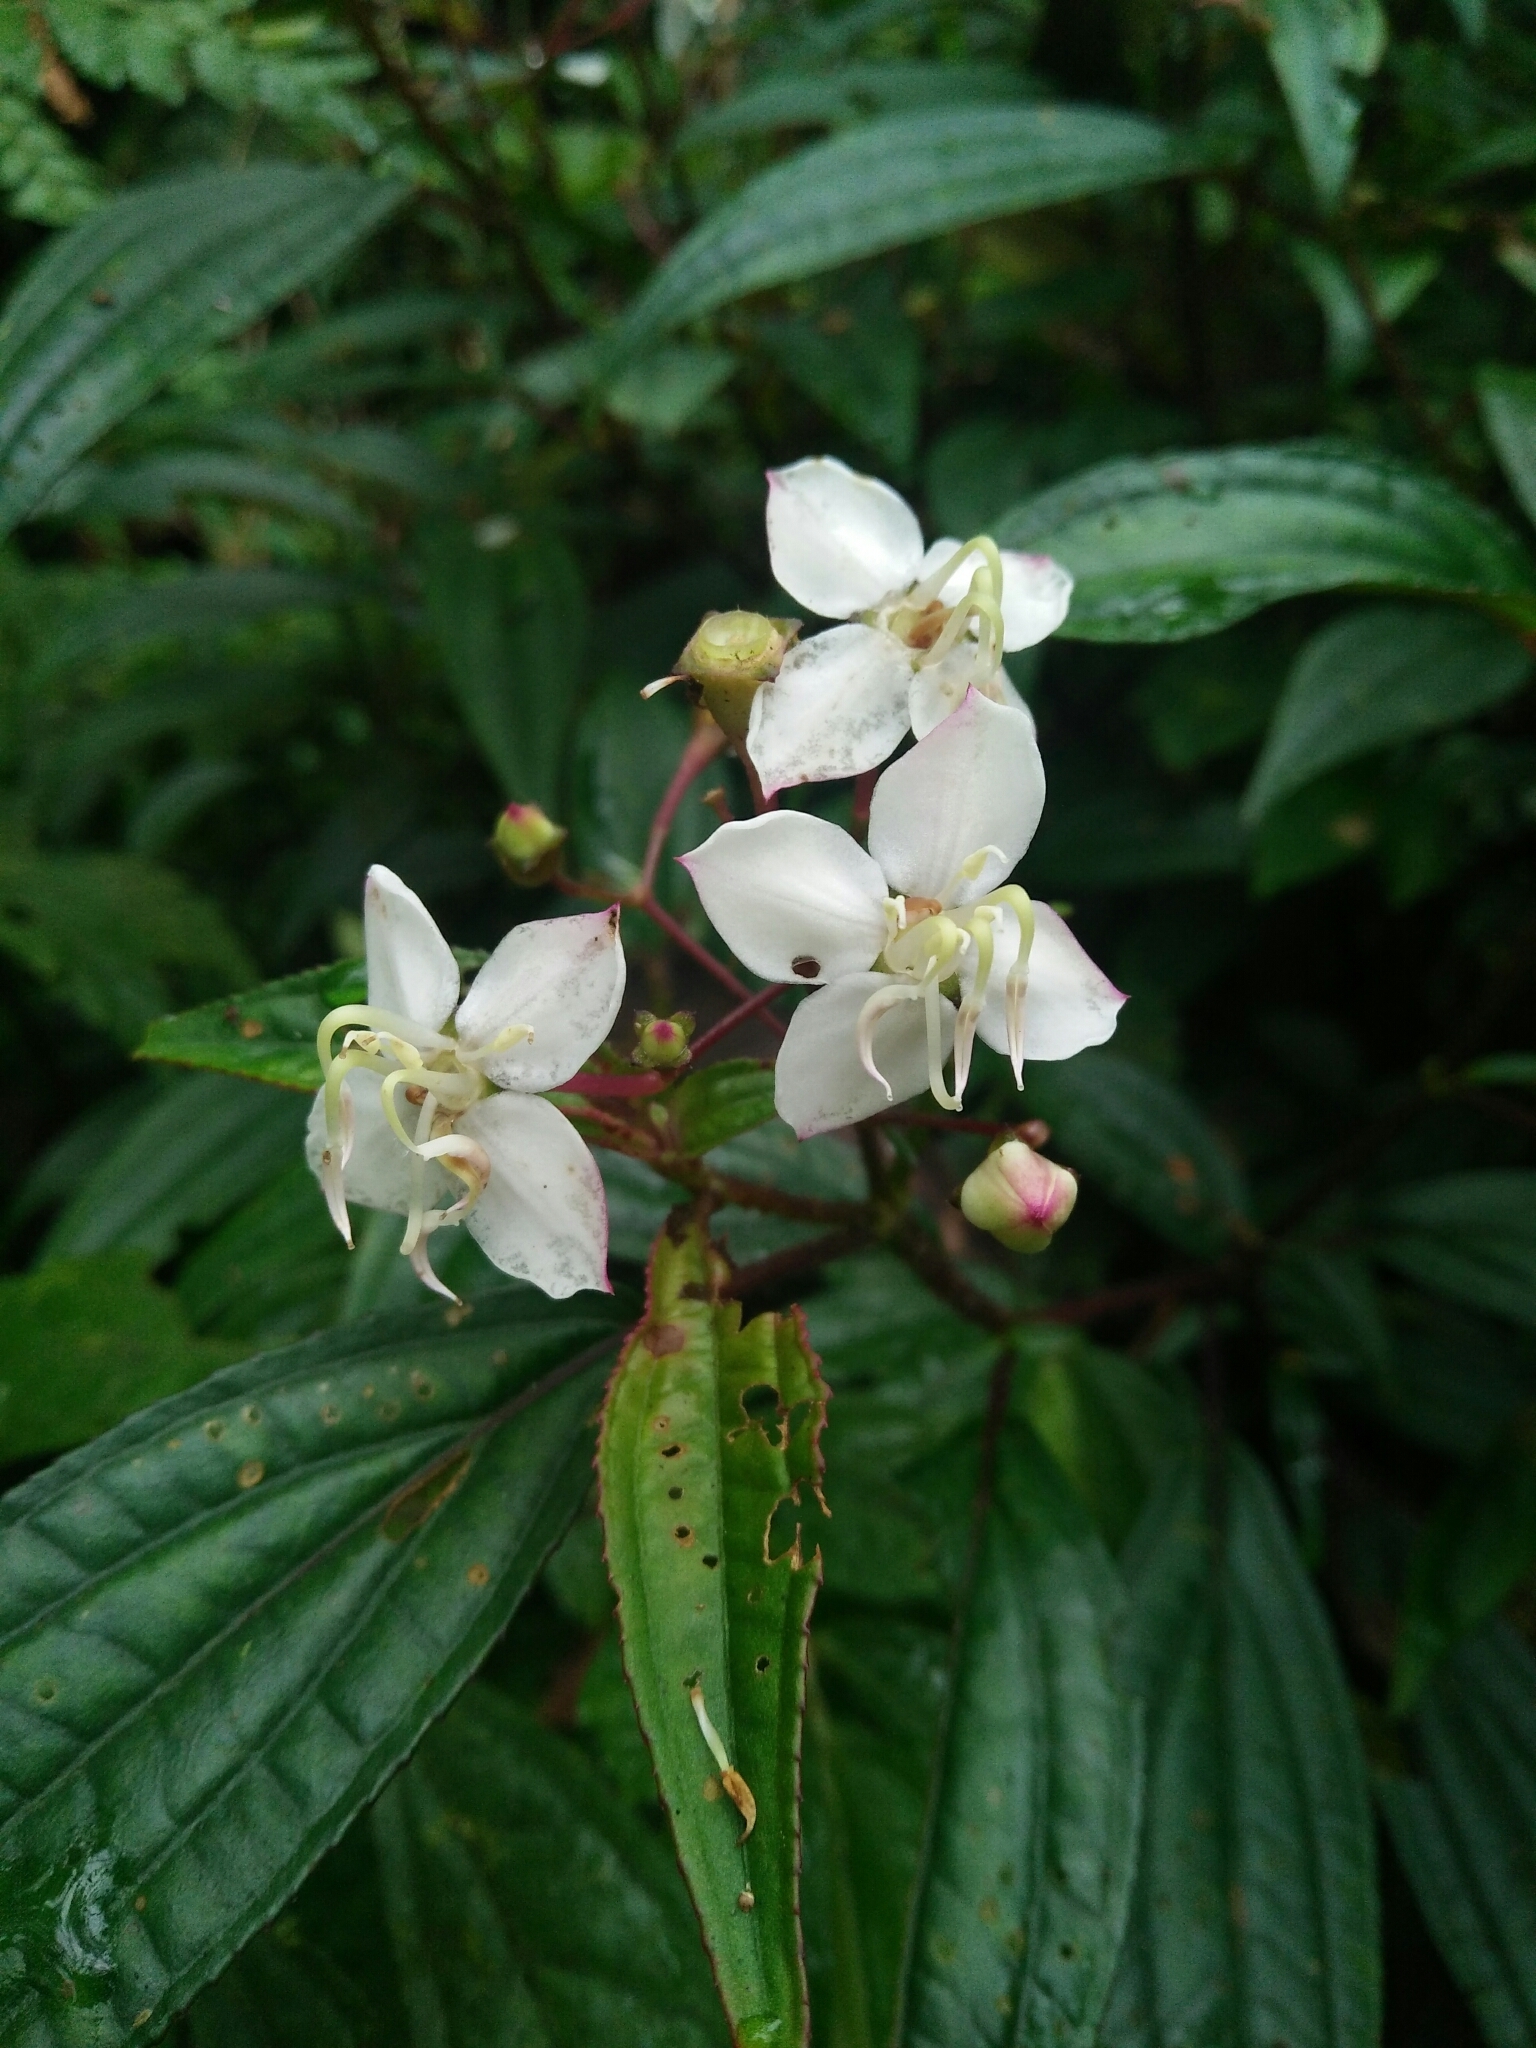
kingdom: Plantae
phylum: Tracheophyta
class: Magnoliopsida
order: Myrtales
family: Melastomataceae
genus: Bredia
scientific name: Bredia oldhamii
